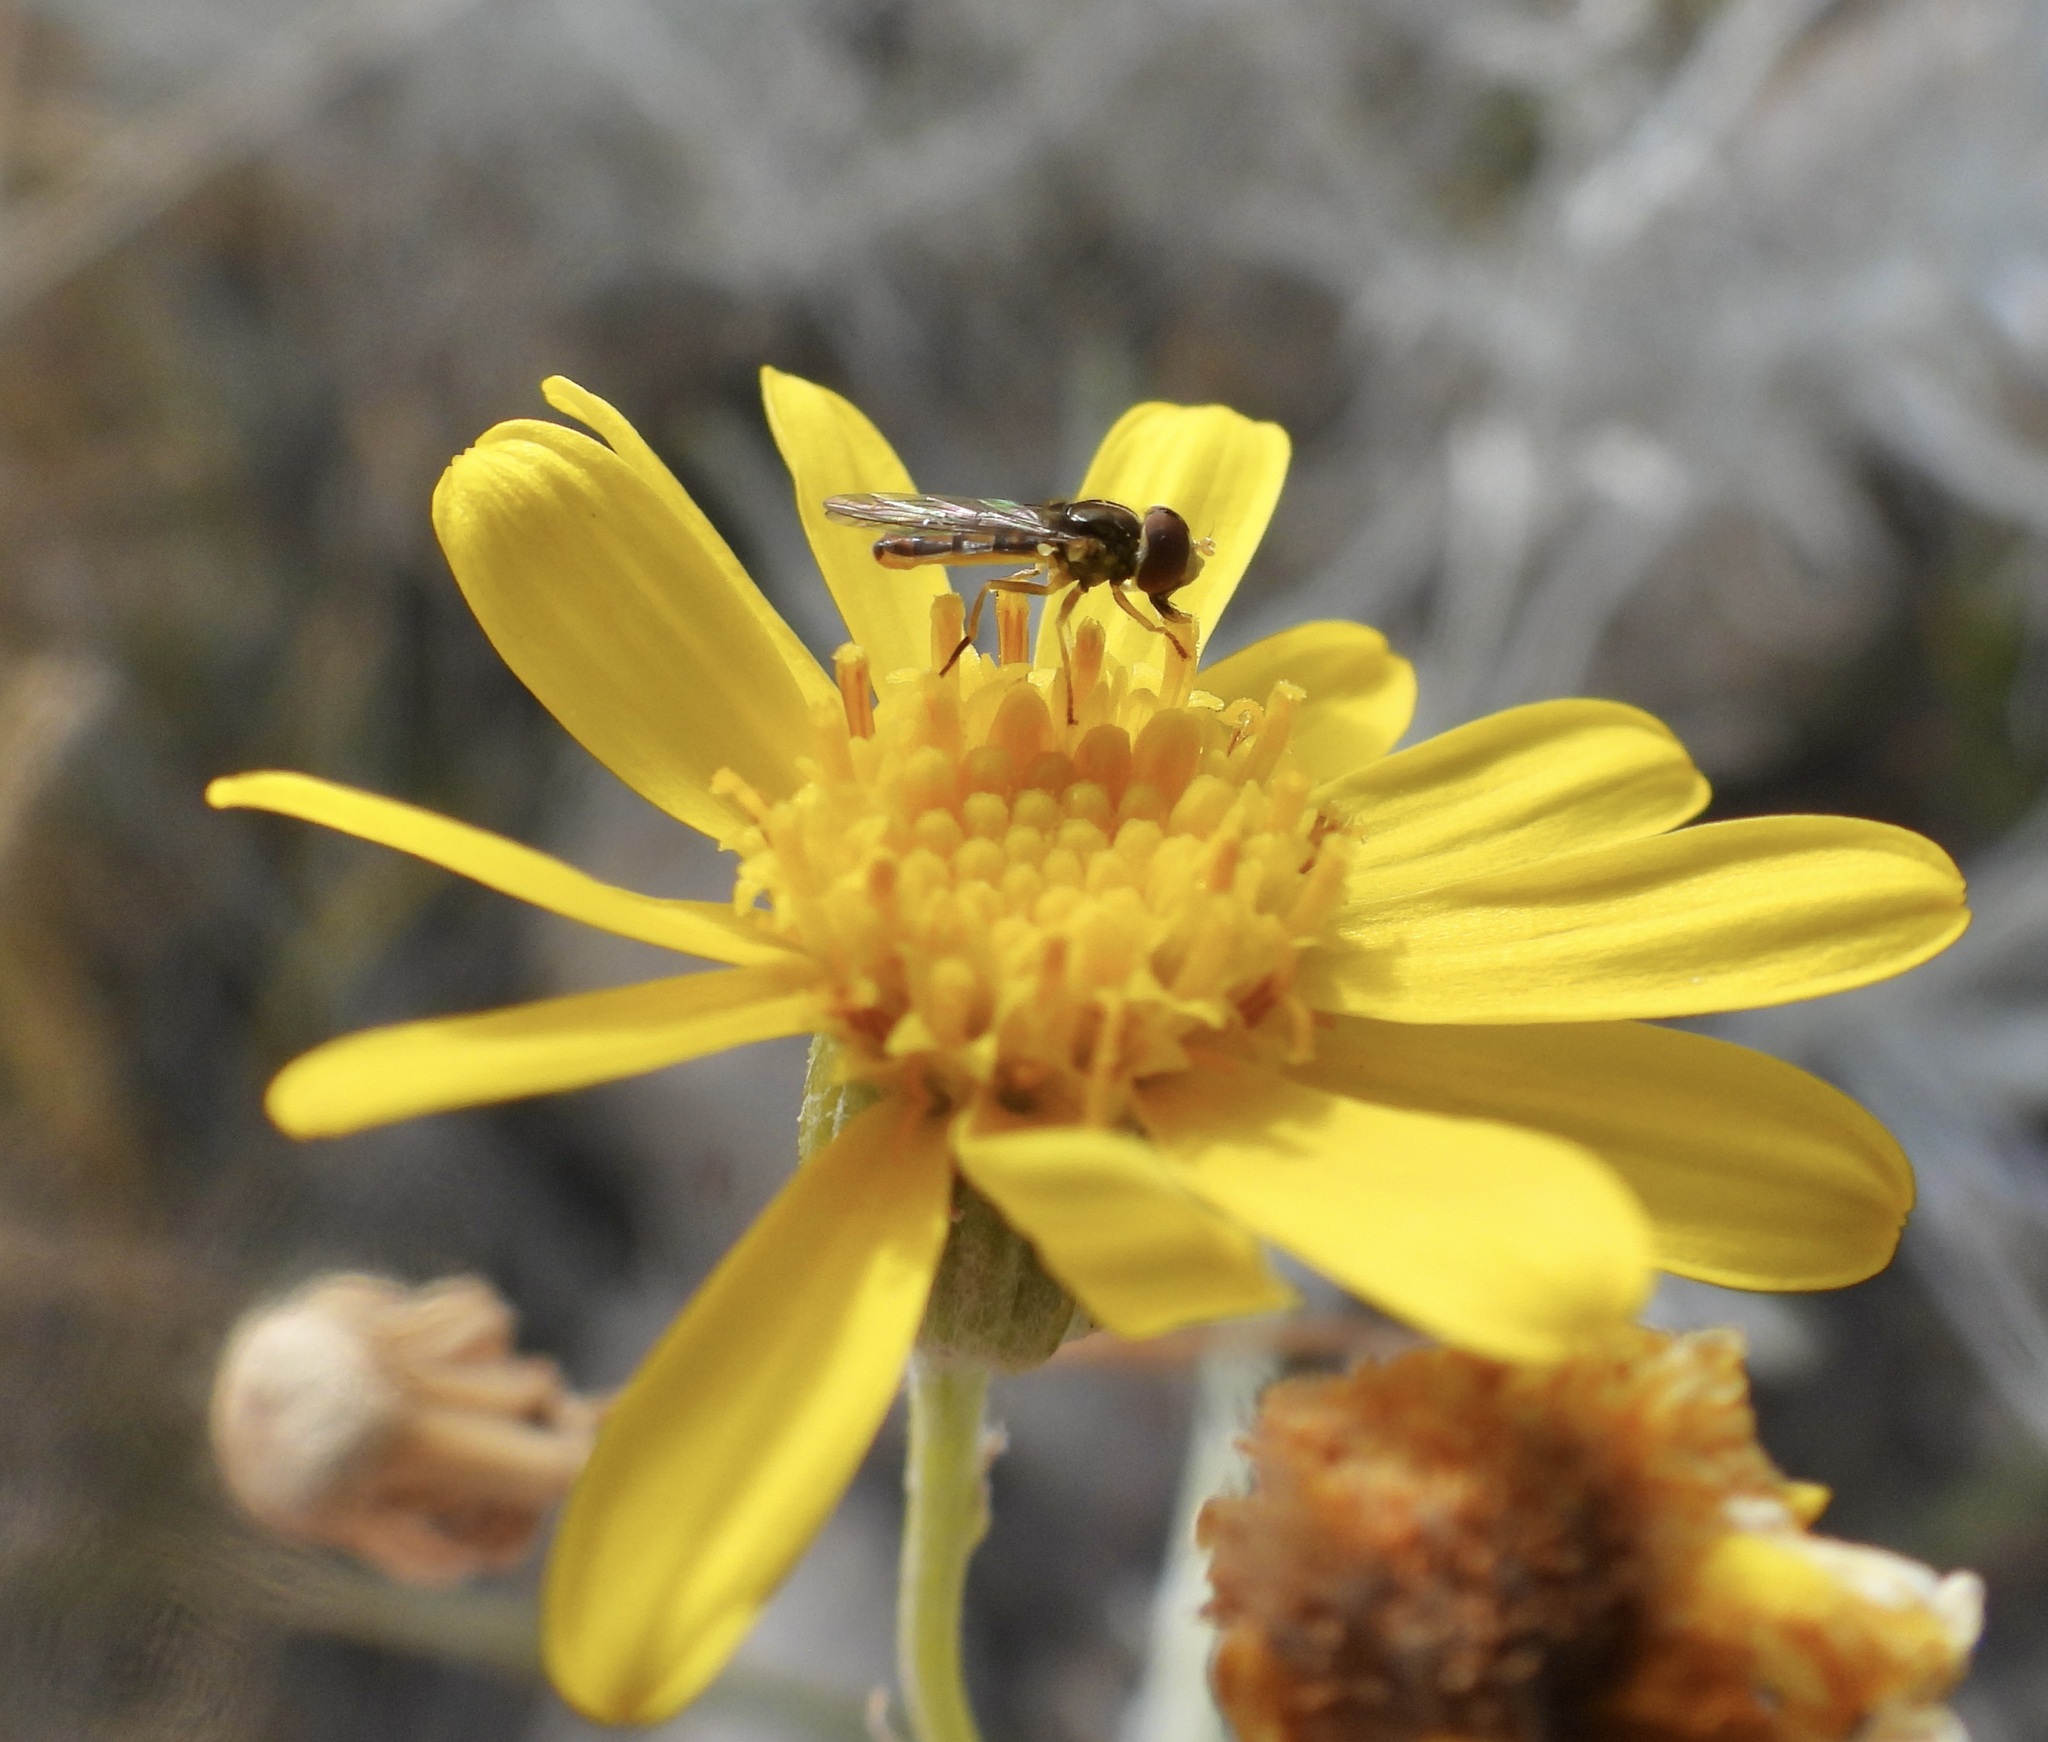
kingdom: Animalia
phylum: Arthropoda
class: Insecta
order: Diptera
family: Syrphidae
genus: Toxomerus
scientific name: Toxomerus marginatus
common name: Syrphid fly
